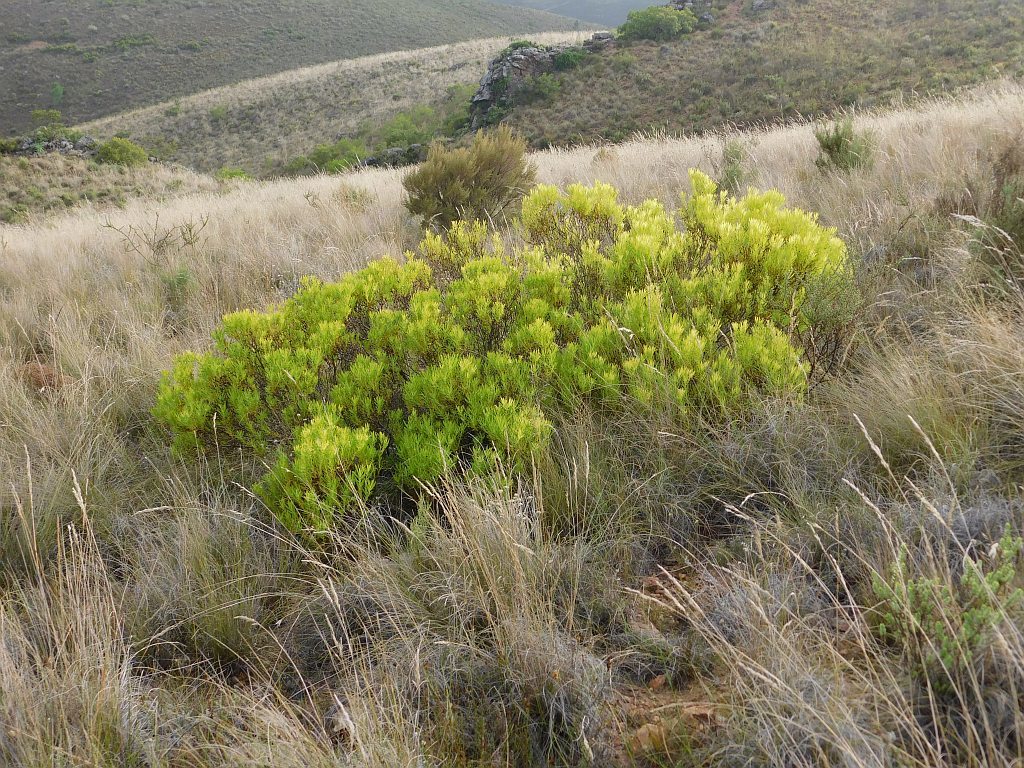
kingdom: Plantae
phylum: Tracheophyta
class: Magnoliopsida
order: Proteales
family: Proteaceae
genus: Leucadendron
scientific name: Leucadendron salignum
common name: Common sunshine conebush
